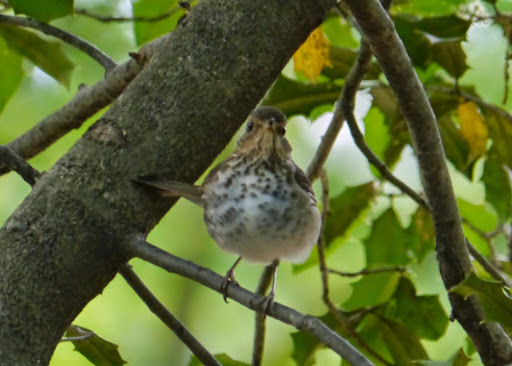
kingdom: Animalia
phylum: Chordata
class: Aves
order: Passeriformes
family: Turdidae
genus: Catharus
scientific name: Catharus ustulatus
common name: Swainson's thrush
